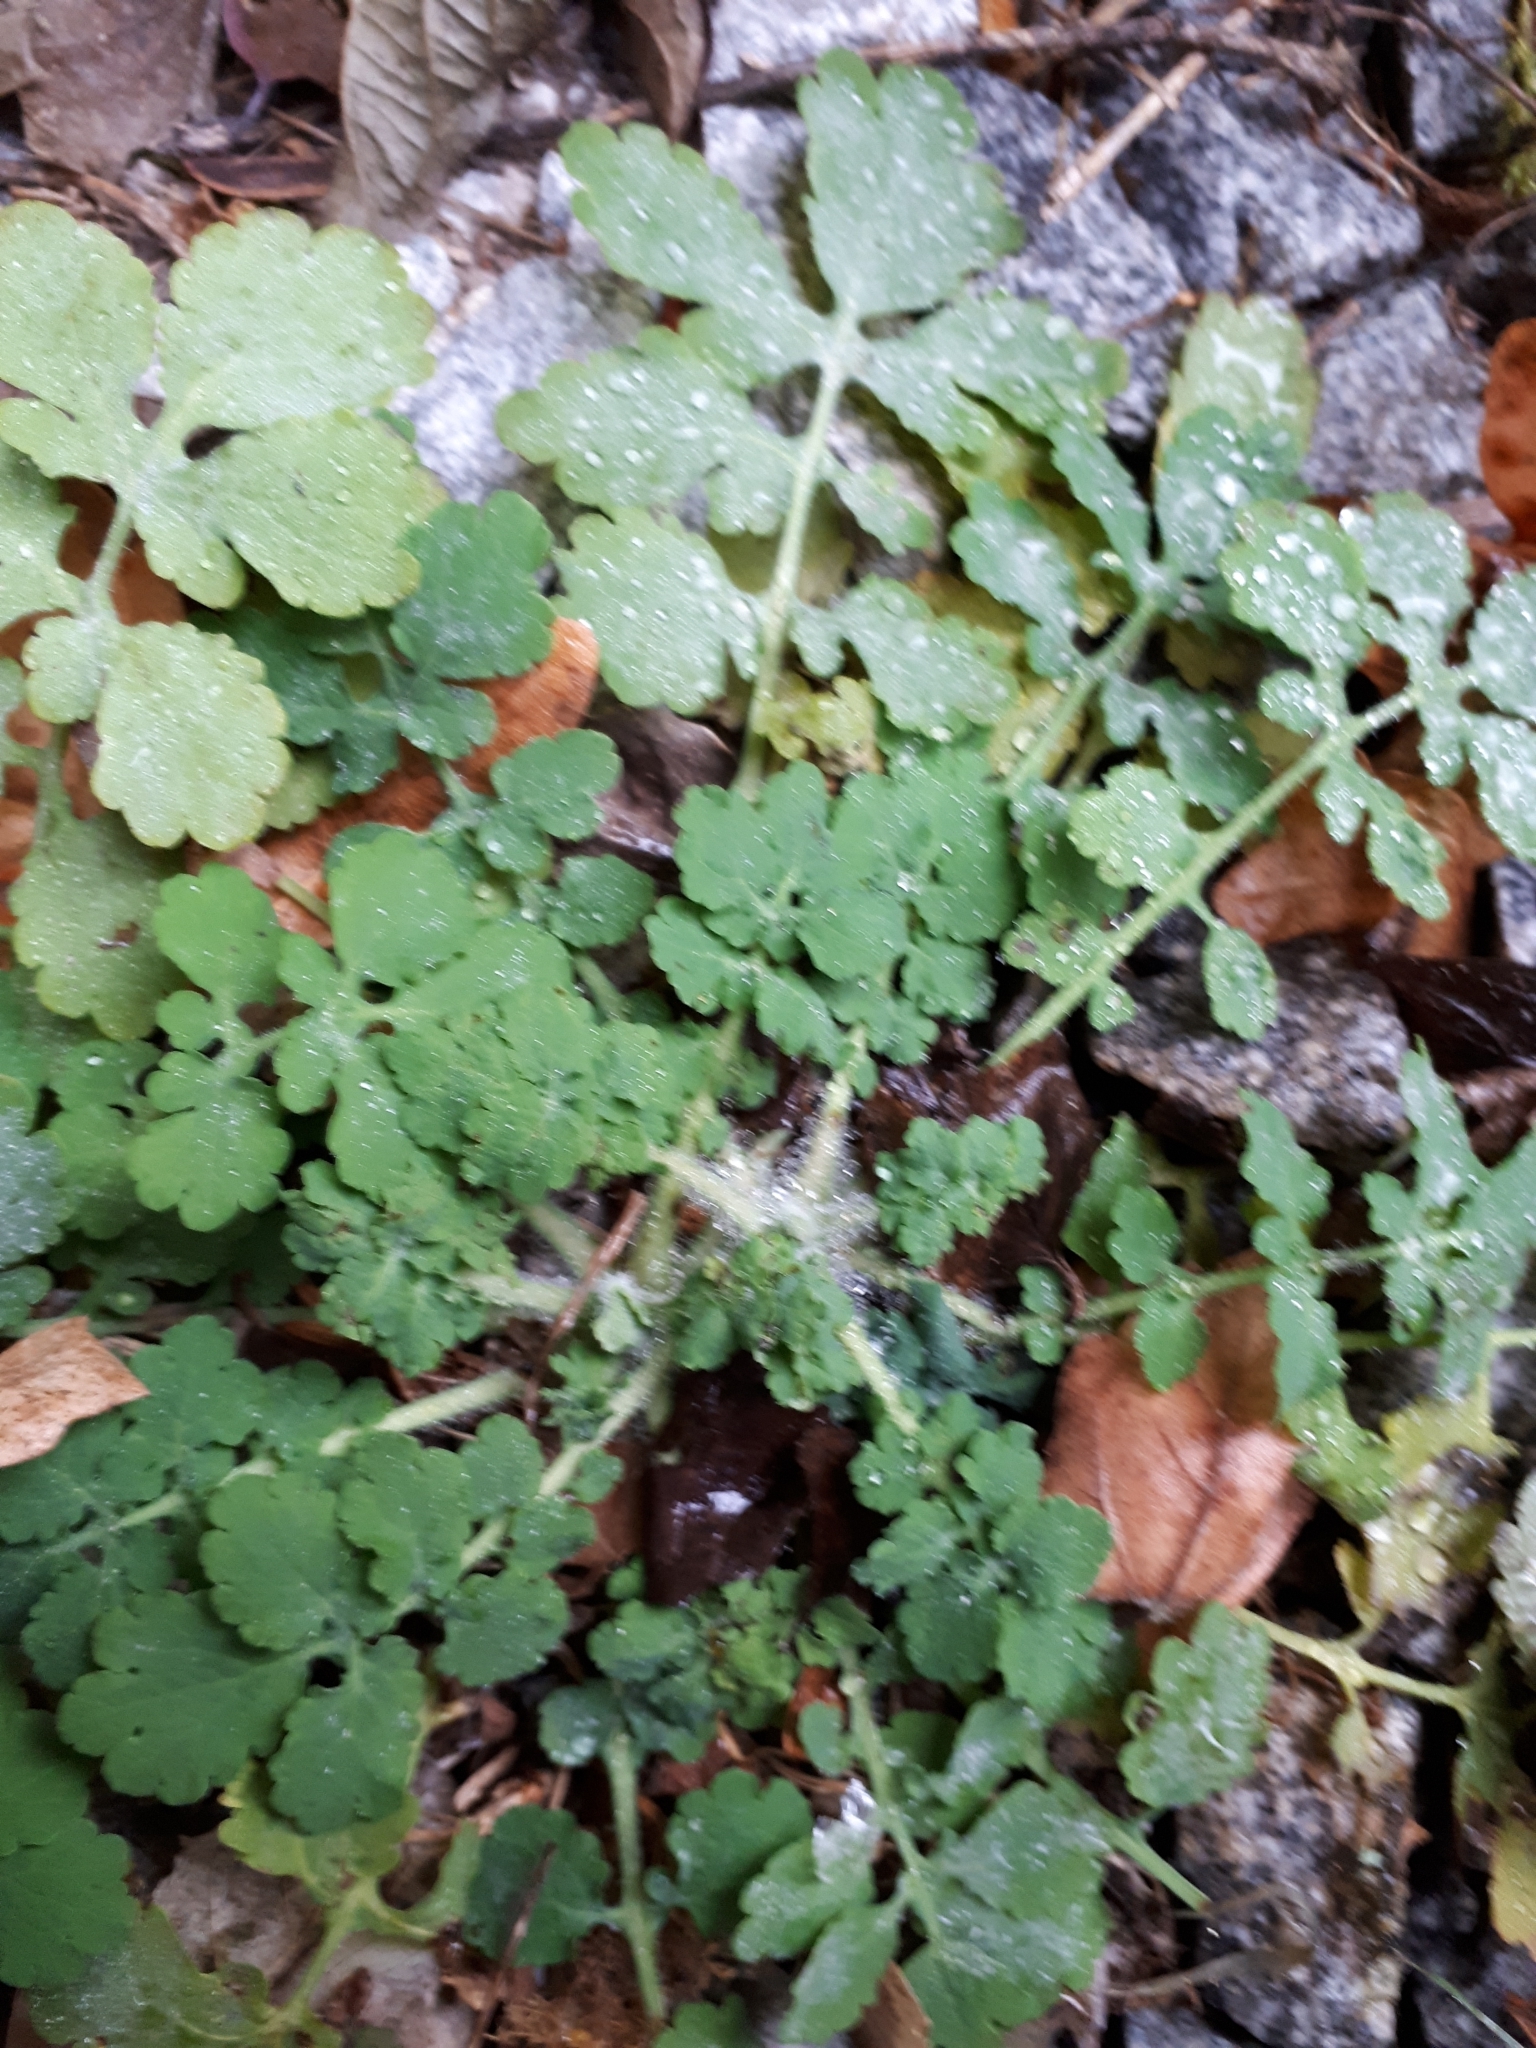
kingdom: Plantae
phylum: Tracheophyta
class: Magnoliopsida
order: Ranunculales
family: Papaveraceae
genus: Chelidonium
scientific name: Chelidonium majus
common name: Greater celandine
